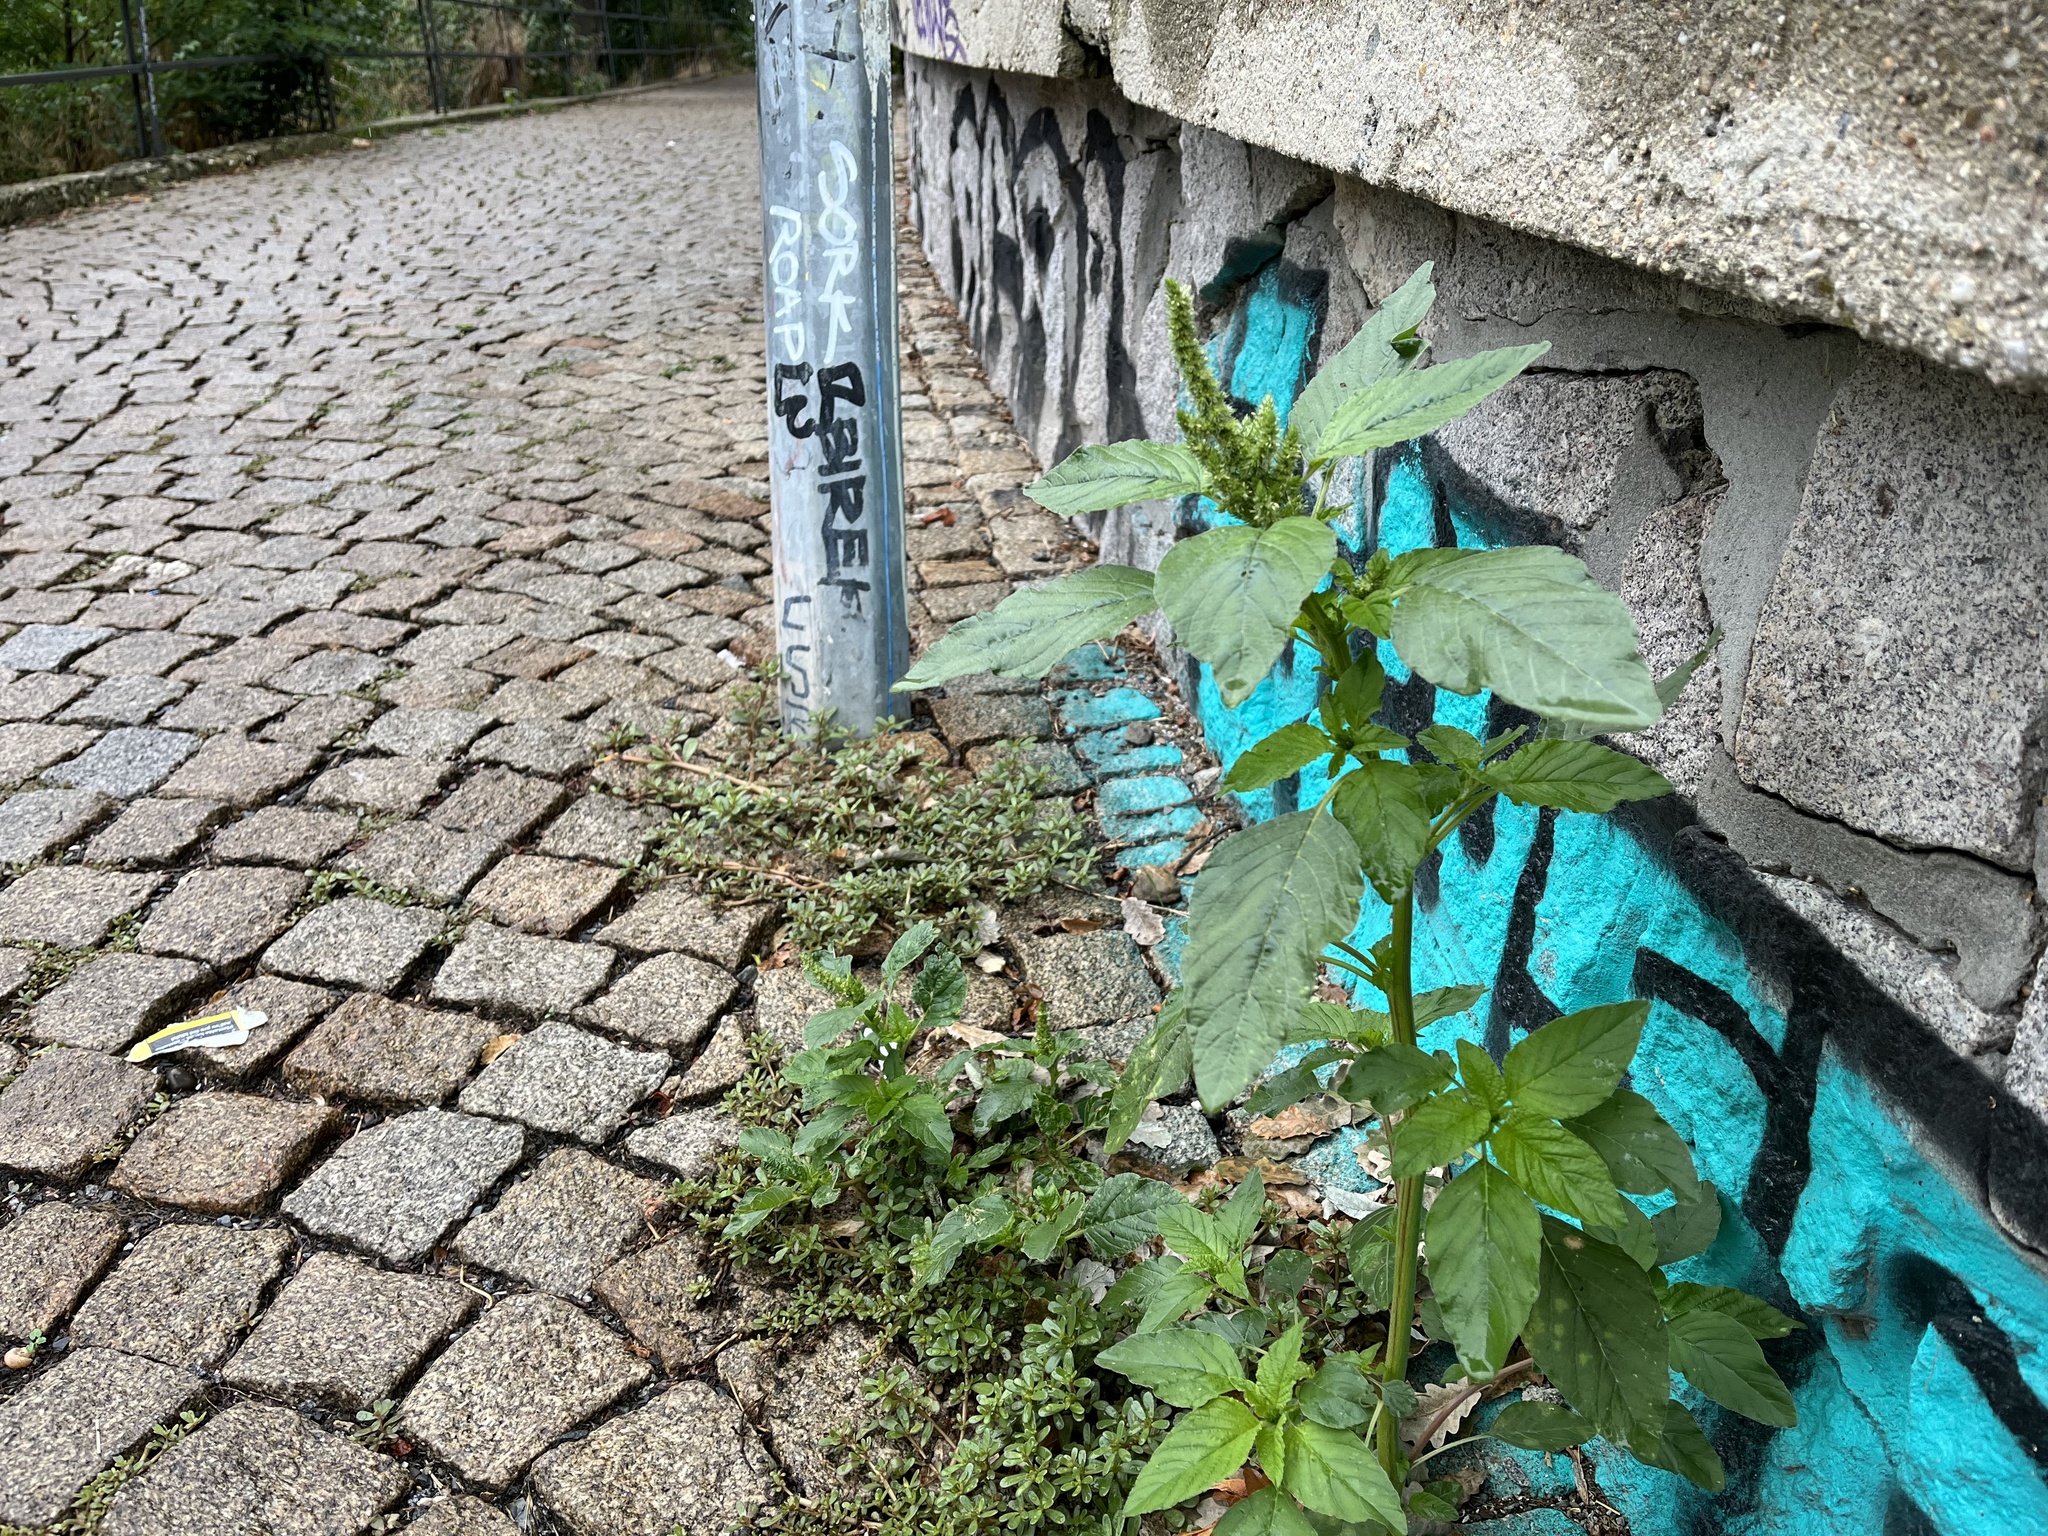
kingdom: Plantae
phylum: Tracheophyta
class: Magnoliopsida
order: Caryophyllales
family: Amaranthaceae
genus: Amaranthus
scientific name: Amaranthus retroflexus
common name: Redroot amaranth
